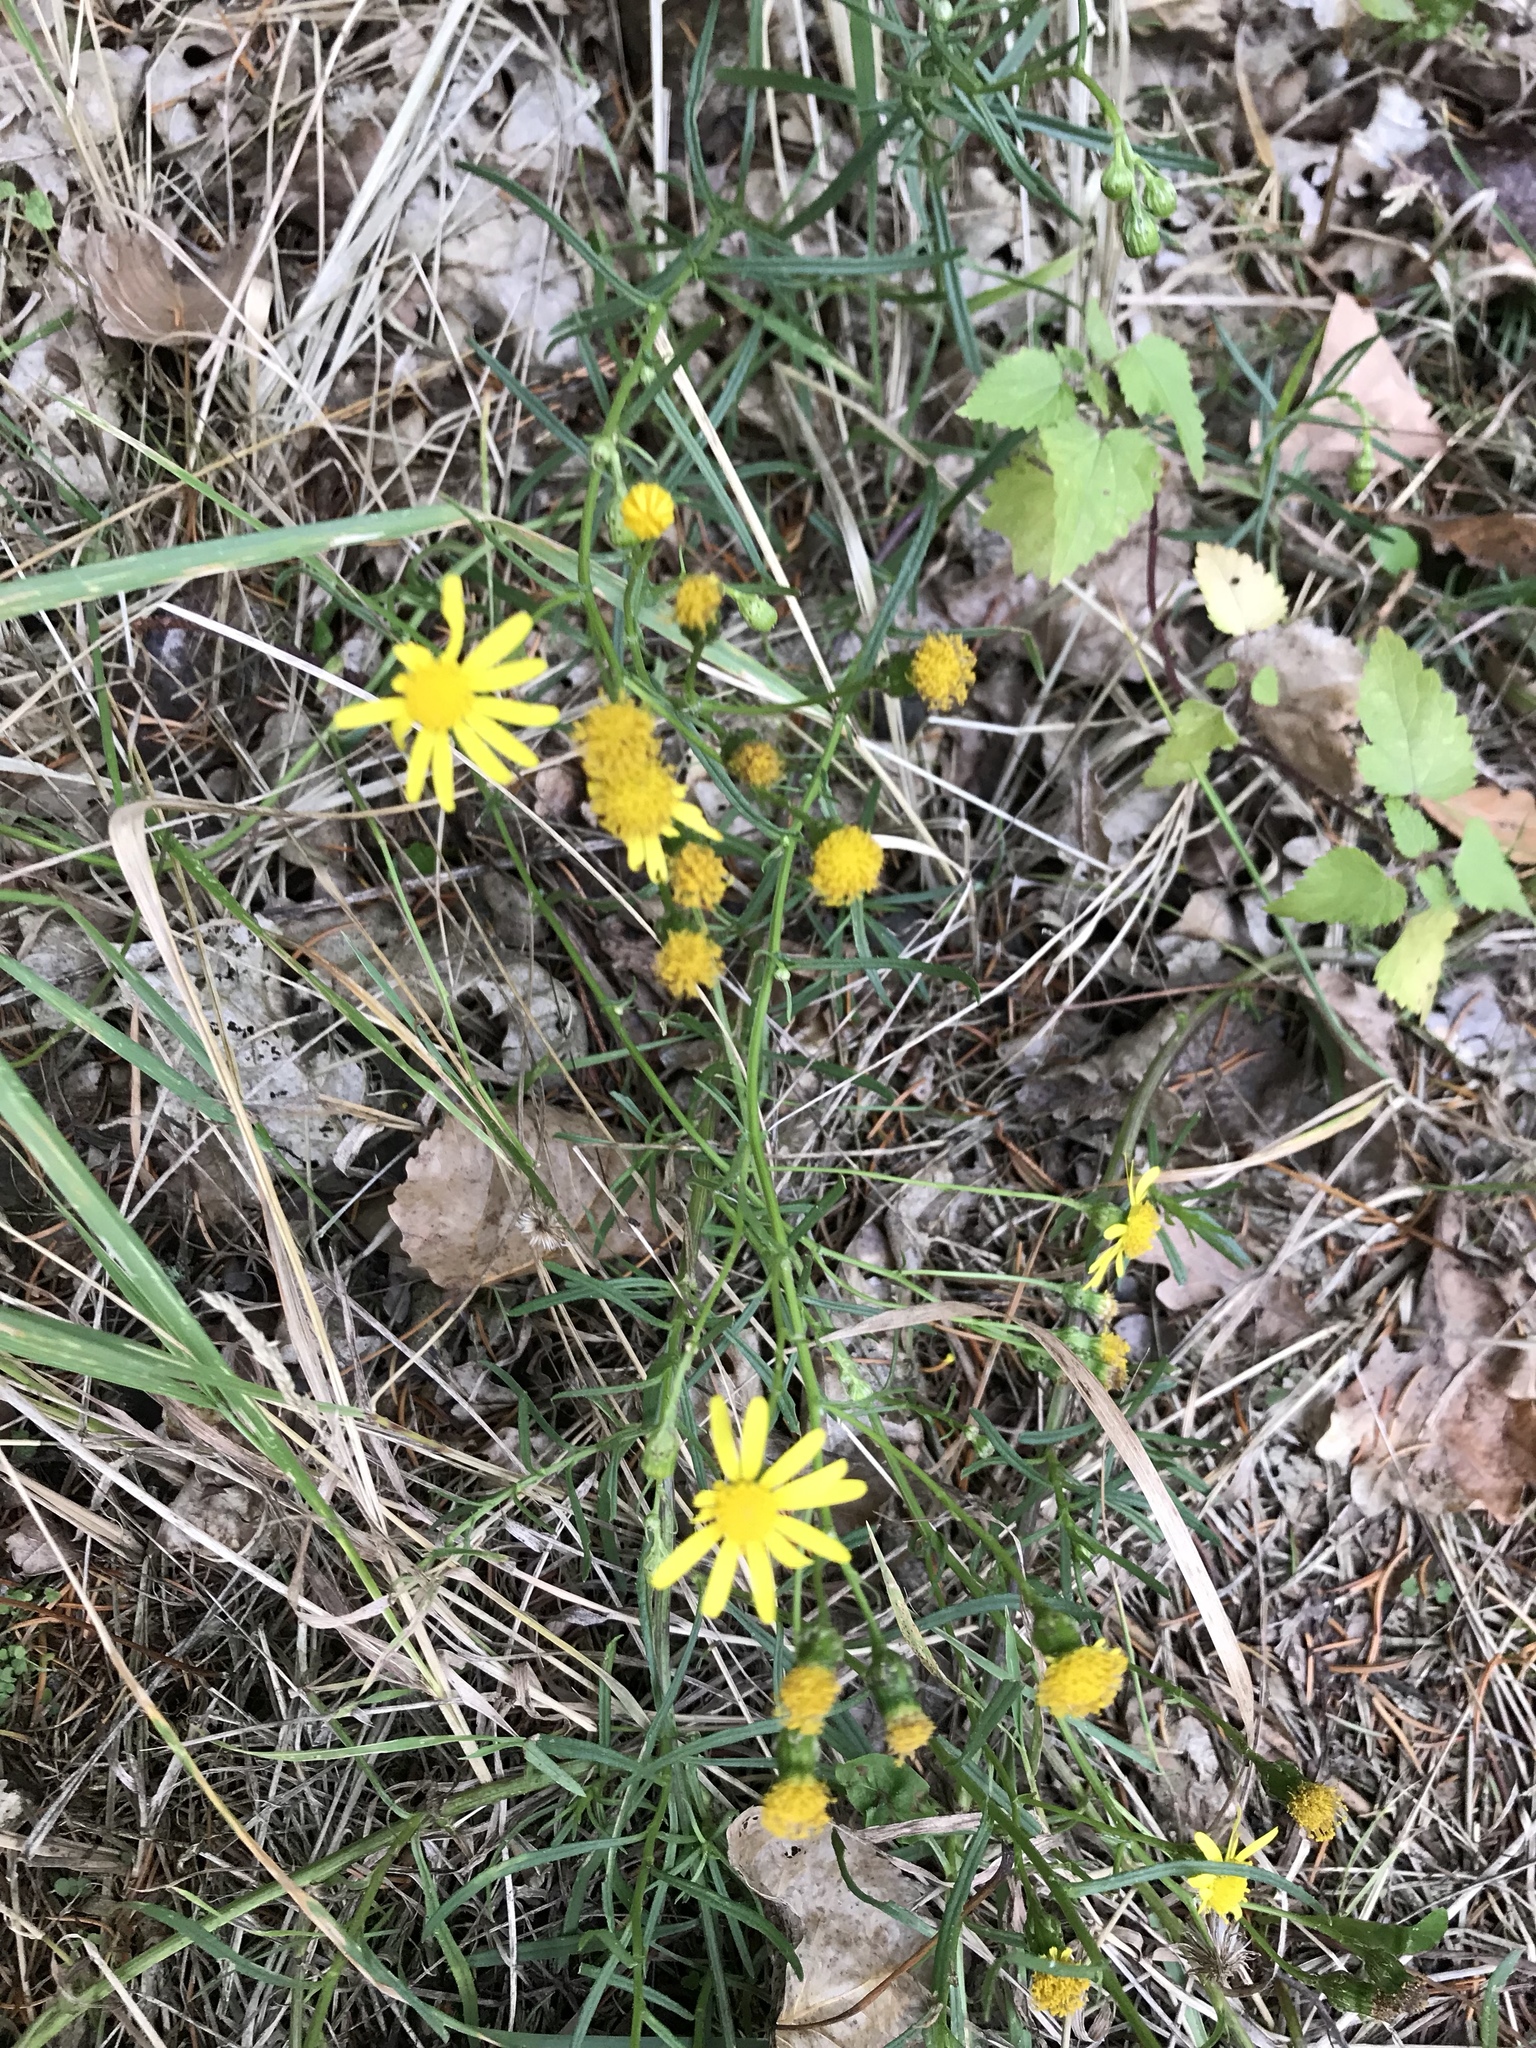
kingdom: Plantae
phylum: Tracheophyta
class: Magnoliopsida
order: Asterales
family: Asteraceae
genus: Senecio
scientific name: Senecio inaequidens
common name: Narrow-leaved ragwort
